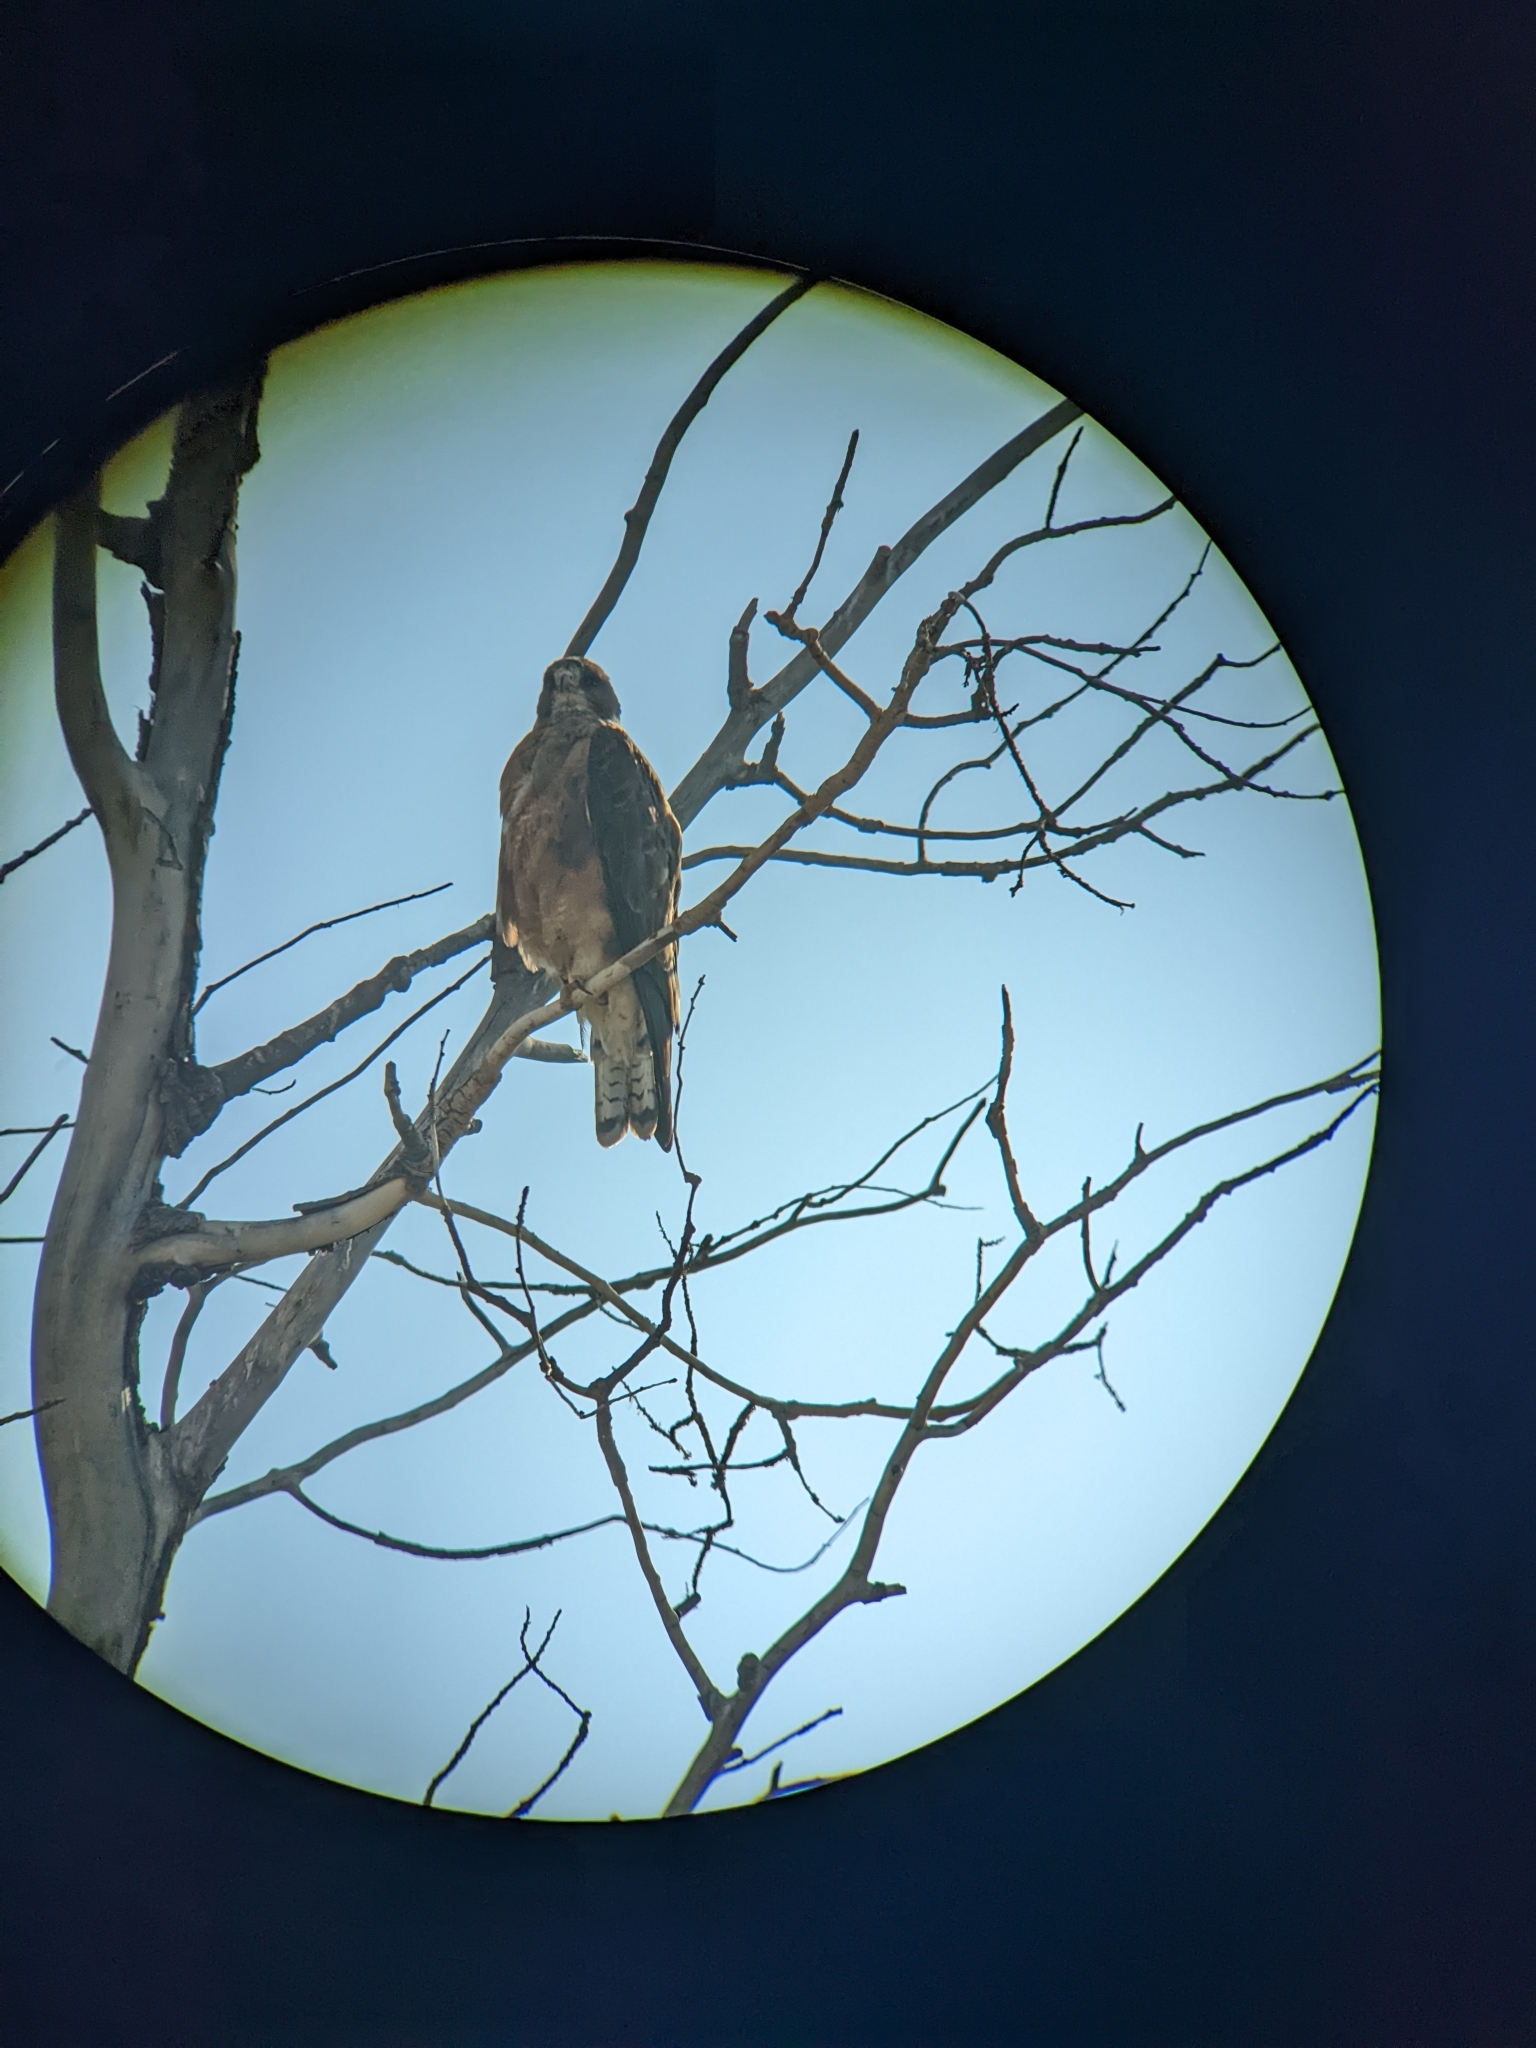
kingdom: Animalia
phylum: Chordata
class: Aves
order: Accipitriformes
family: Accipitridae
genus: Buteo
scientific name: Buteo swainsoni
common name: Swainson's hawk
